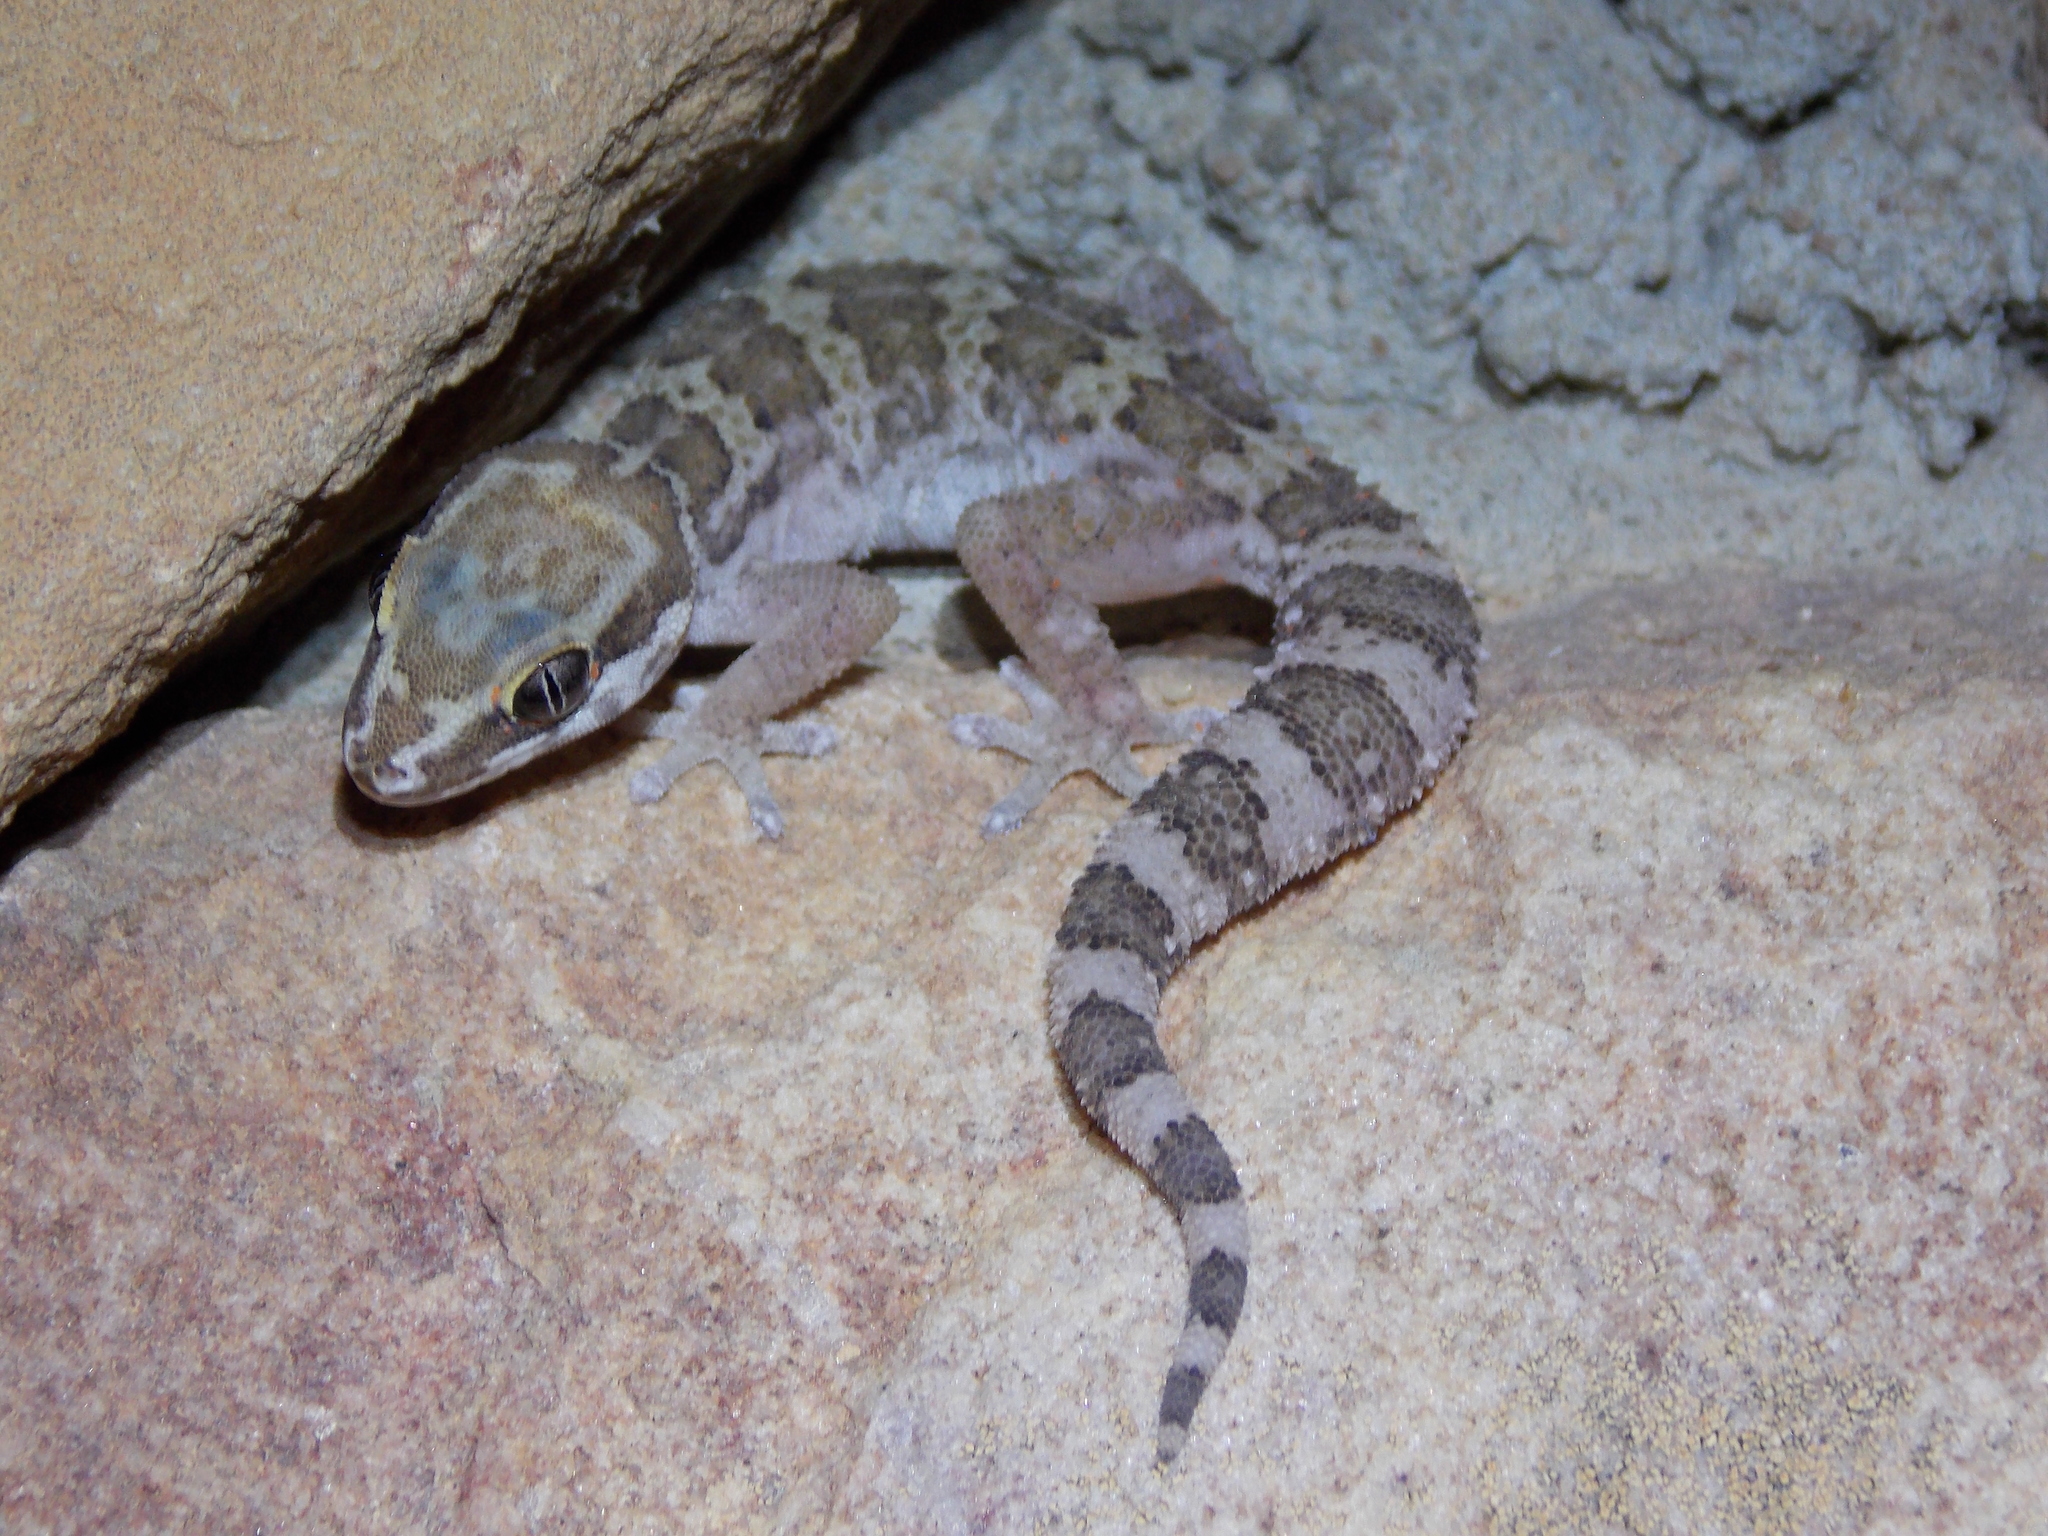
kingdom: Animalia
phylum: Chordata
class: Squamata
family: Gekkonidae
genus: Pachydactylus
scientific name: Pachydactylus formosus
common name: Southern rough gecko
